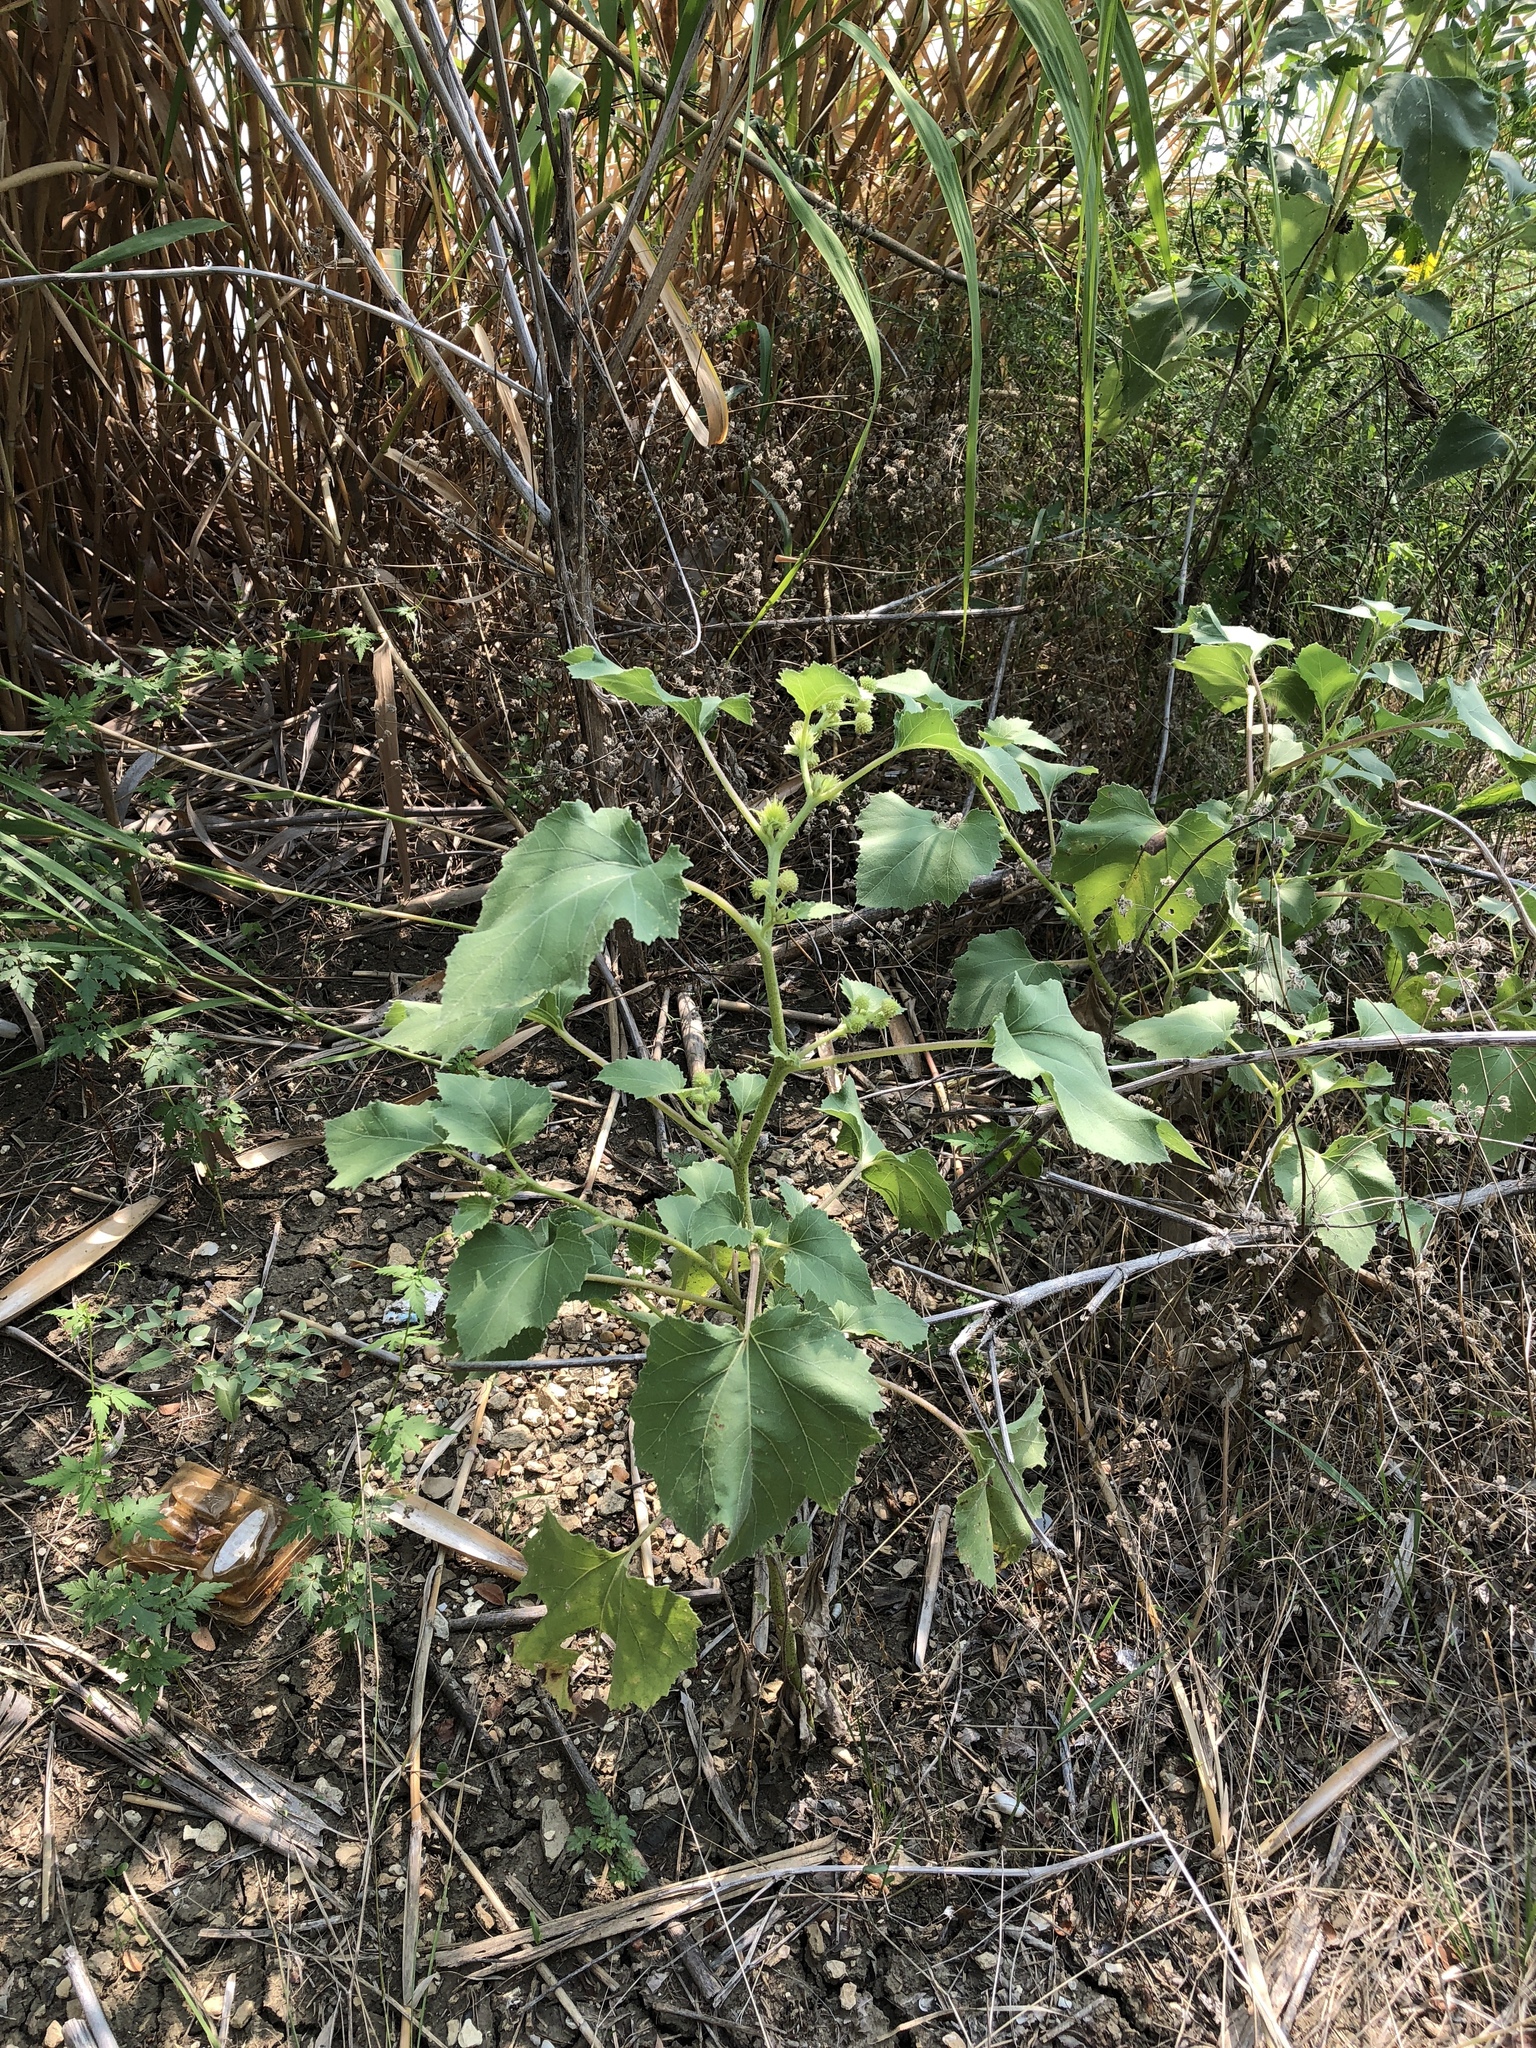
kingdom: Plantae
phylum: Tracheophyta
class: Magnoliopsida
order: Asterales
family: Asteraceae
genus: Xanthium
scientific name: Xanthium strumarium
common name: Rough cocklebur
